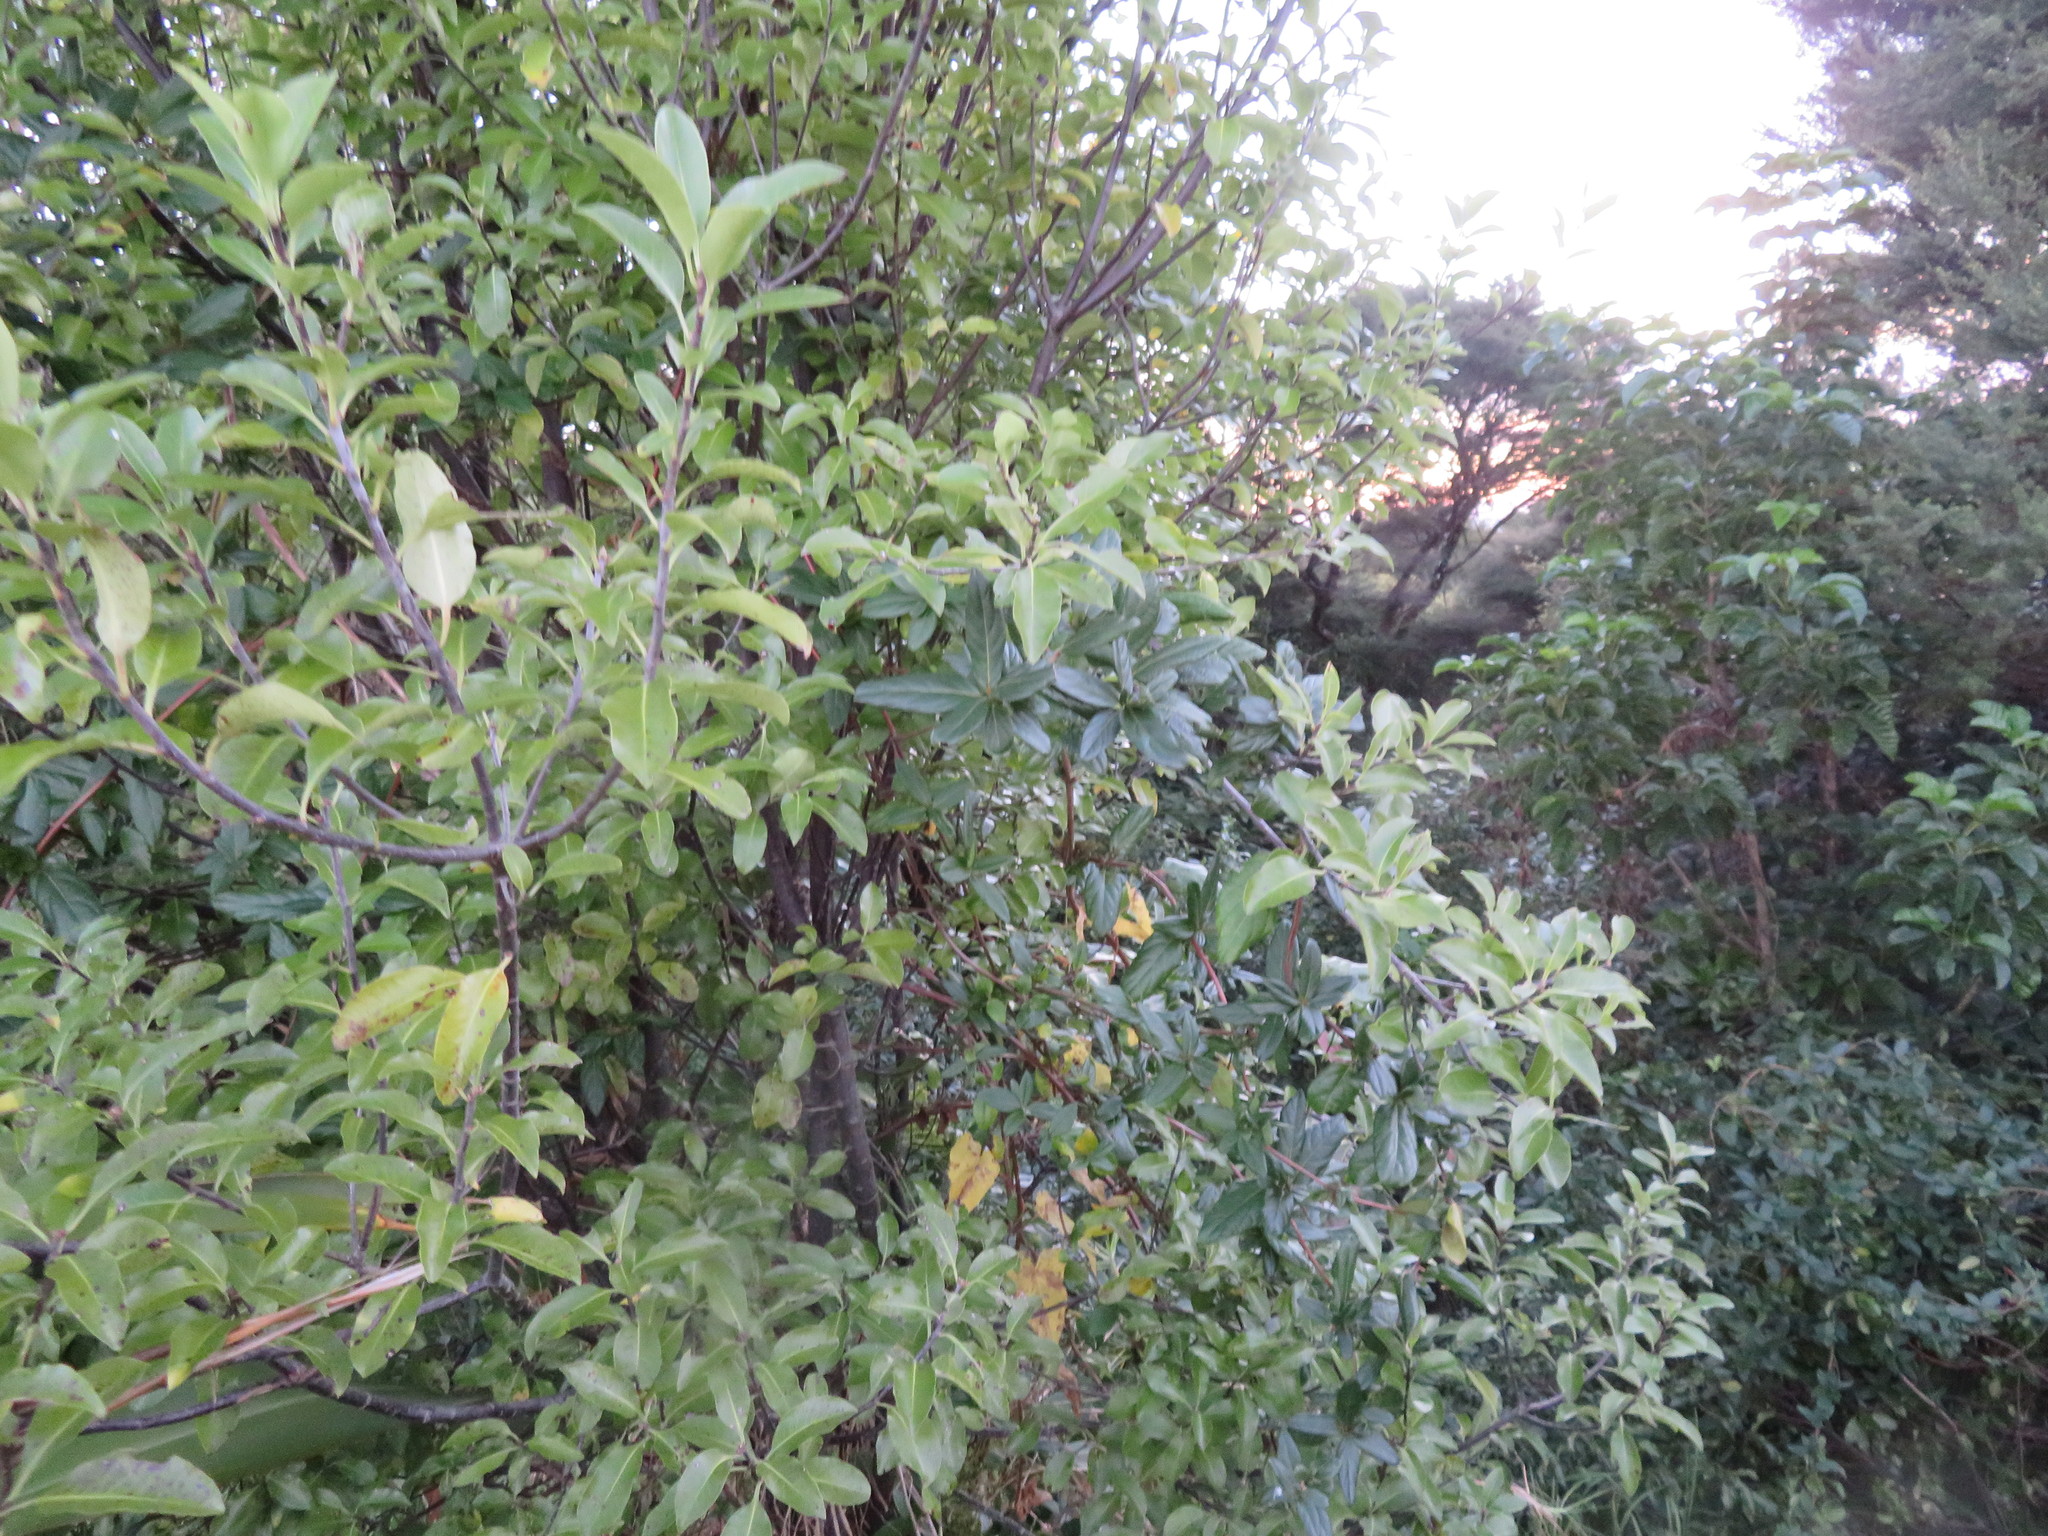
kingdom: Plantae
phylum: Tracheophyta
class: Magnoliopsida
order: Apiales
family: Pittosporaceae
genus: Pittosporum
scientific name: Pittosporum tenuifolium
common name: Kohuhu
